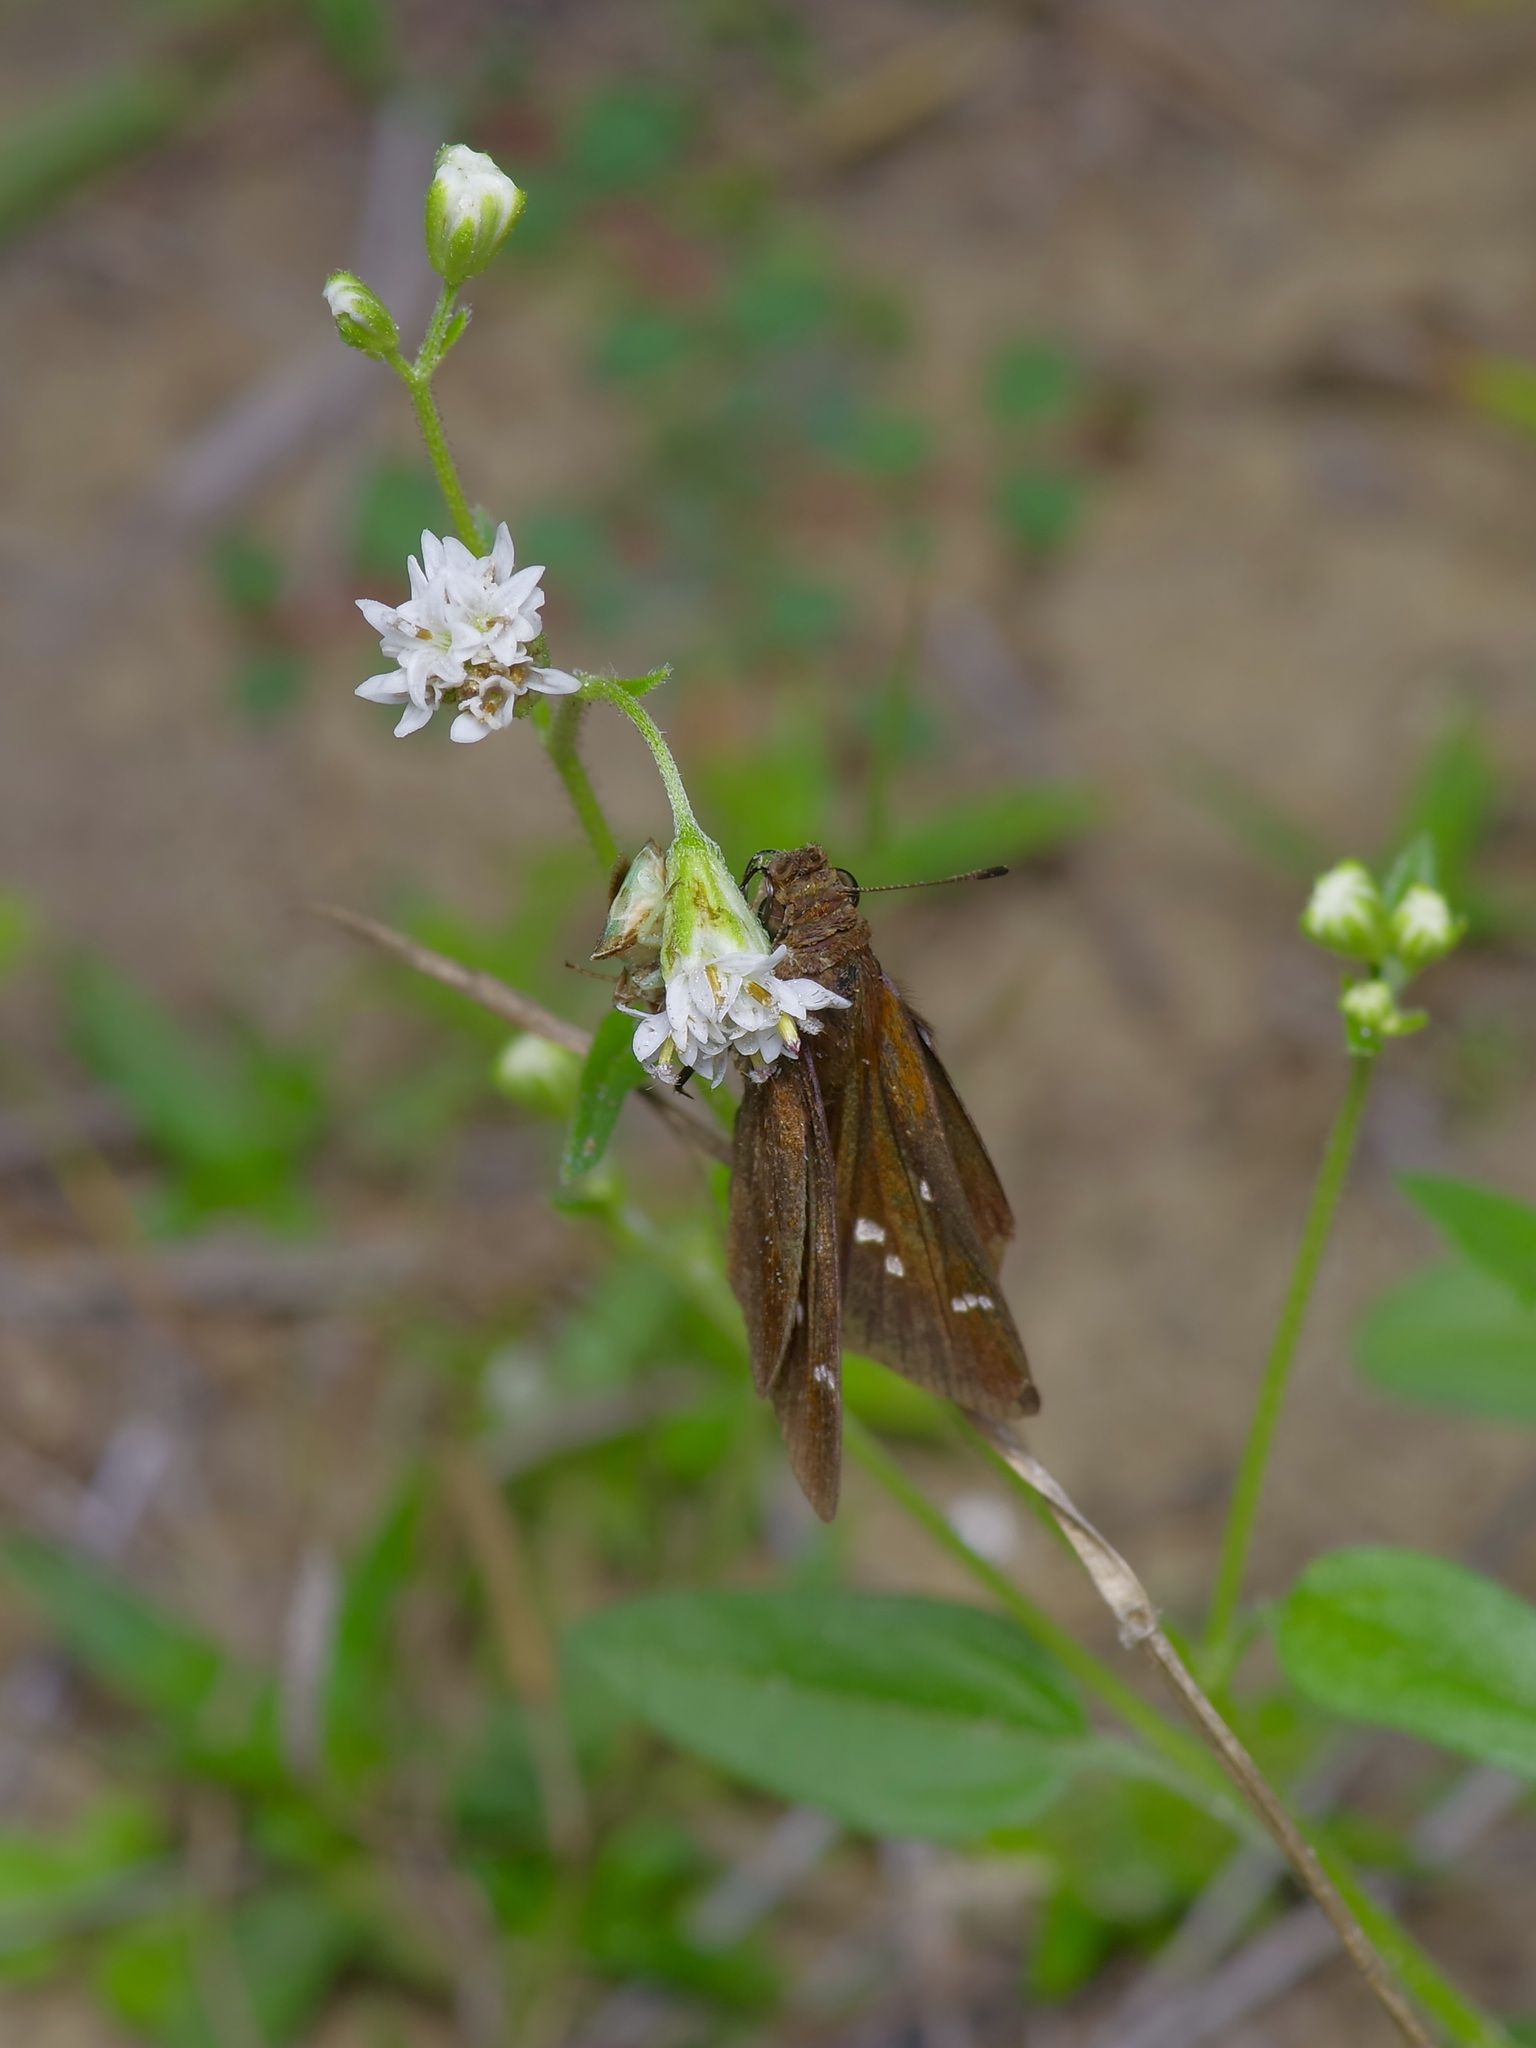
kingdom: Animalia
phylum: Arthropoda
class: Insecta
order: Lepidoptera
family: Hesperiidae
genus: Lerema
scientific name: Lerema accius
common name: Clouded skipper
